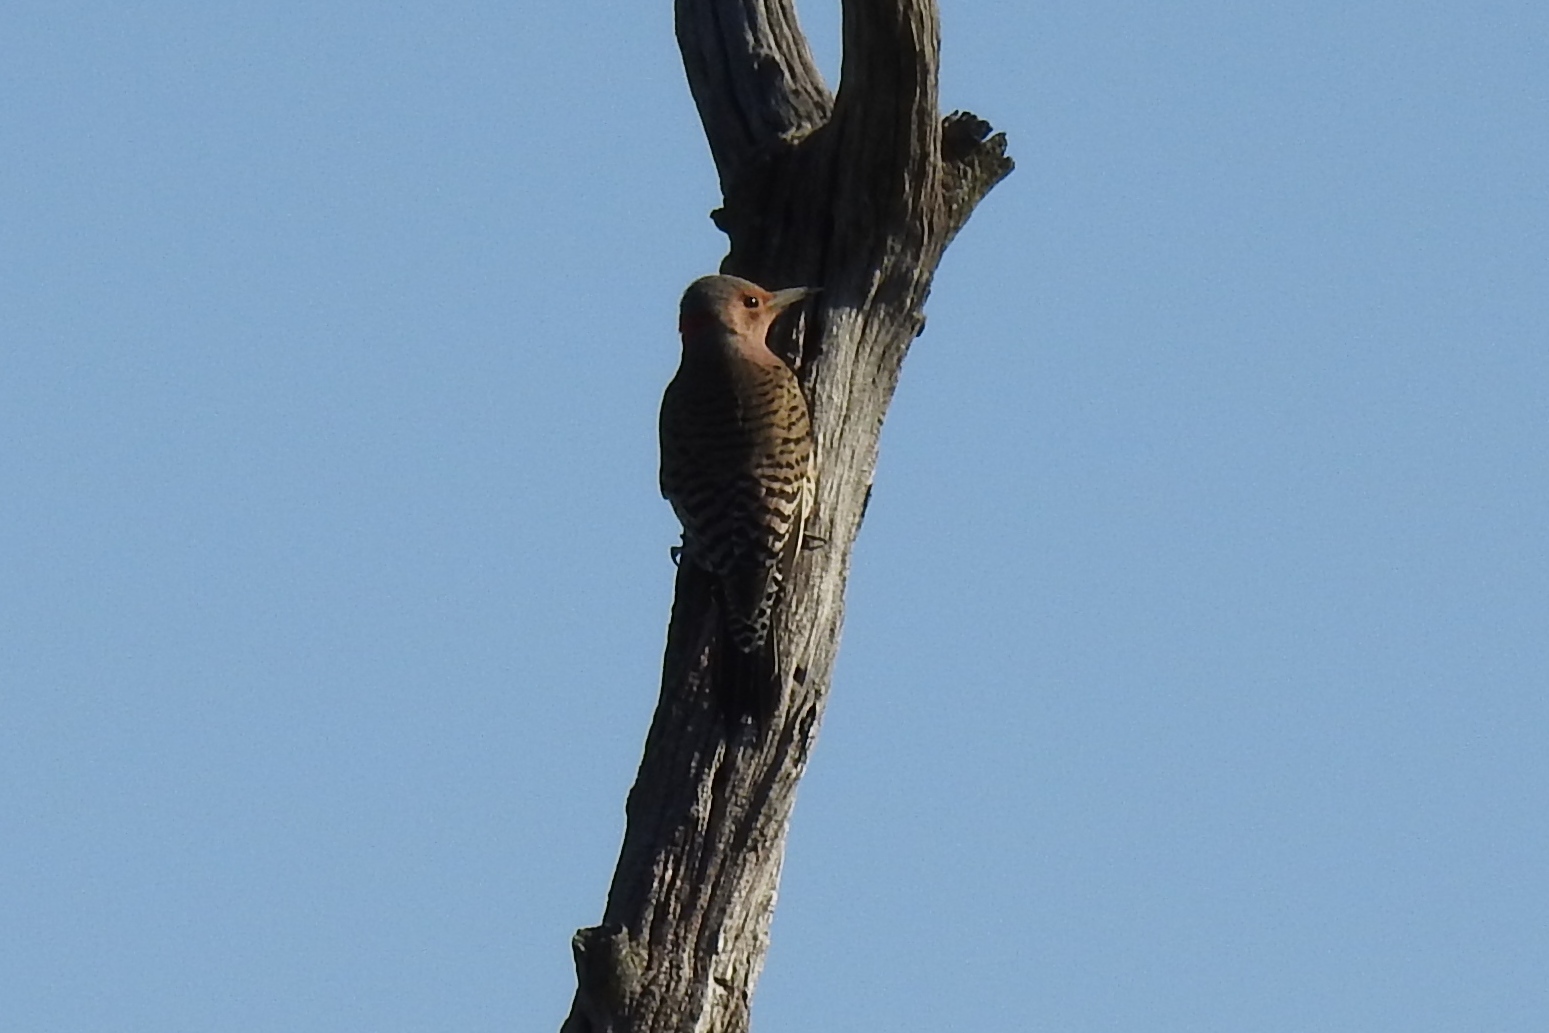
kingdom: Animalia
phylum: Chordata
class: Aves
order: Piciformes
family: Picidae
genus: Colaptes
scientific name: Colaptes auratus
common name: Northern flicker
